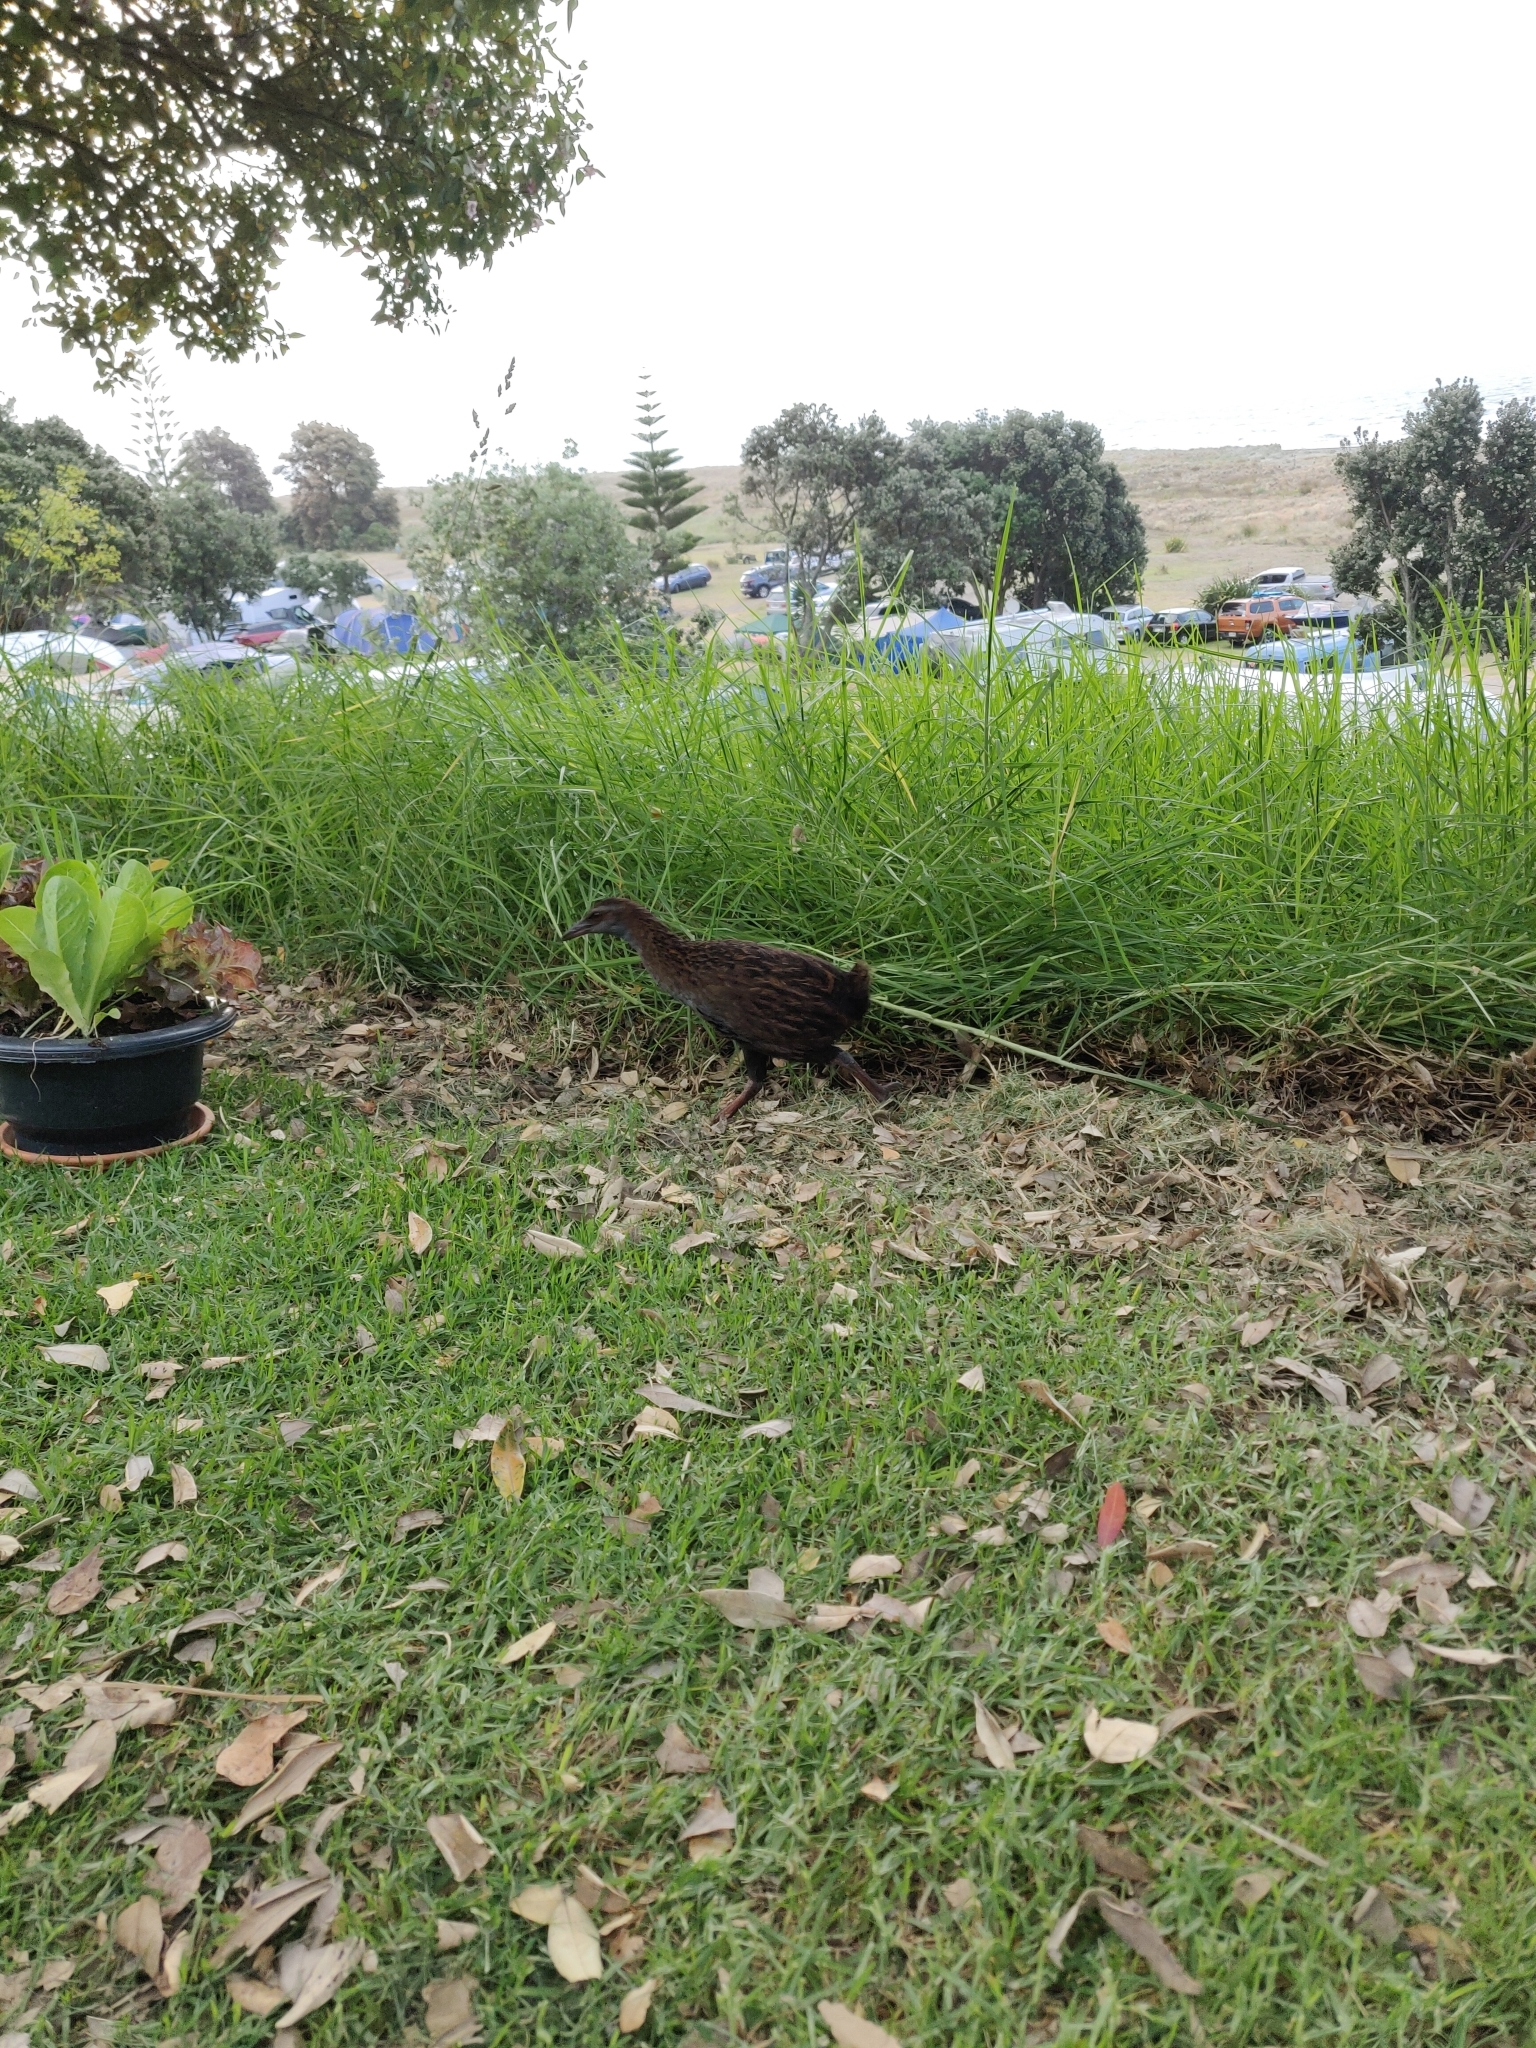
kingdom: Animalia
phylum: Chordata
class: Aves
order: Gruiformes
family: Rallidae
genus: Gallirallus
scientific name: Gallirallus australis
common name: Weka
